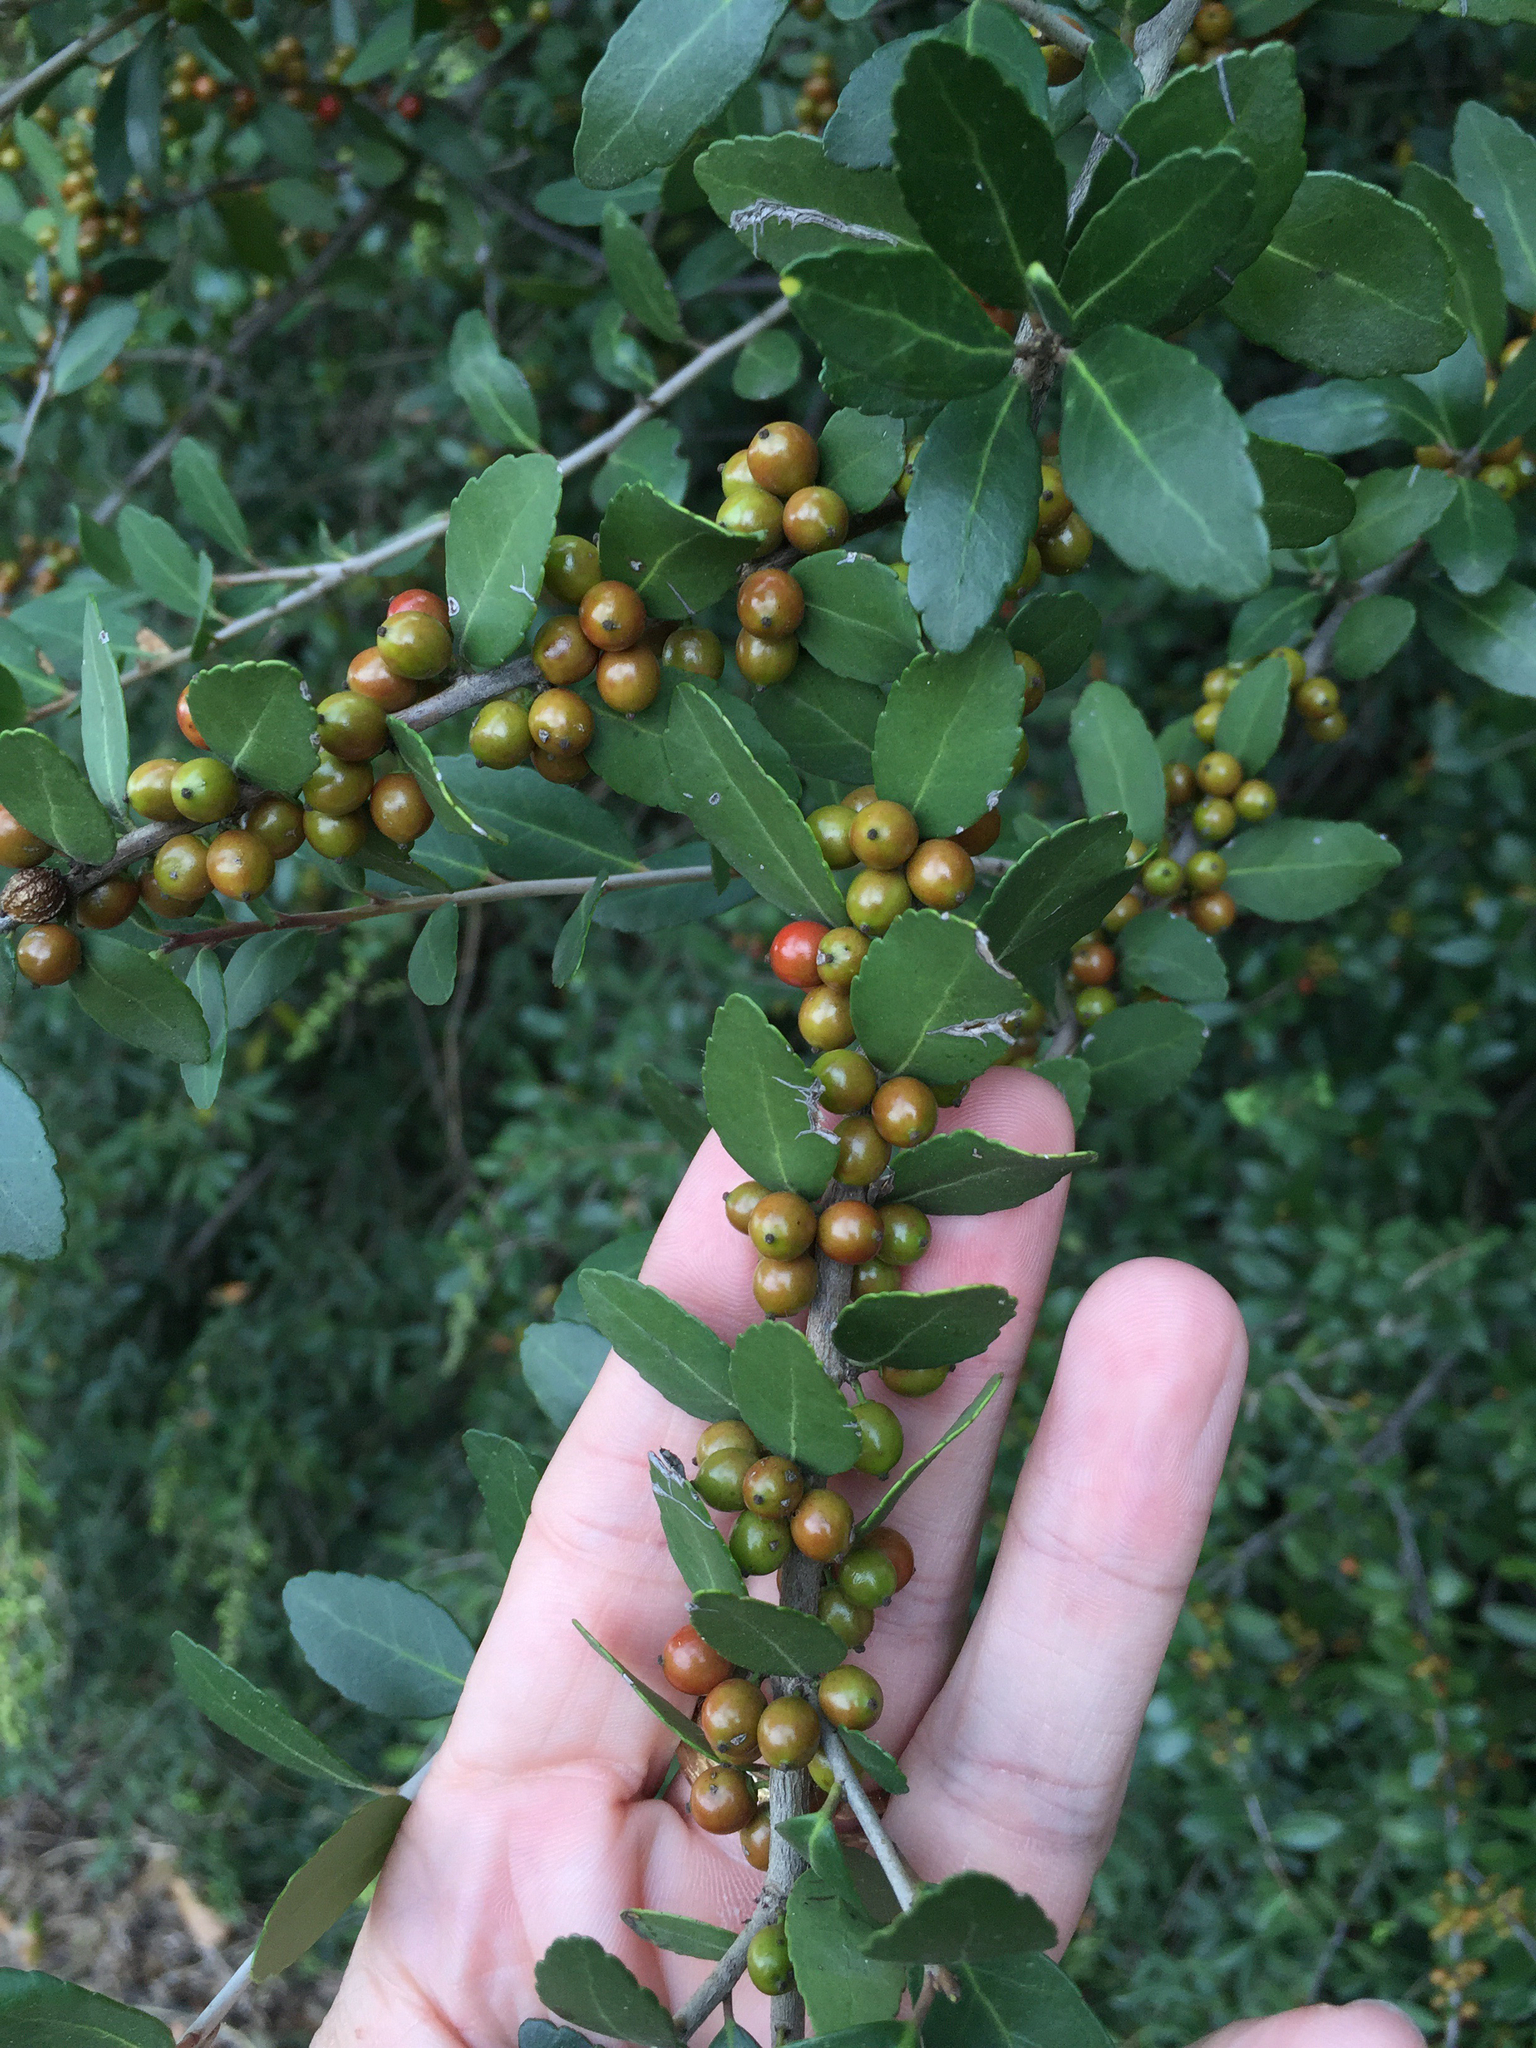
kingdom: Plantae
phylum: Tracheophyta
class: Magnoliopsida
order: Aquifoliales
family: Aquifoliaceae
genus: Ilex
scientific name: Ilex vomitoria
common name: Yaupon holly
